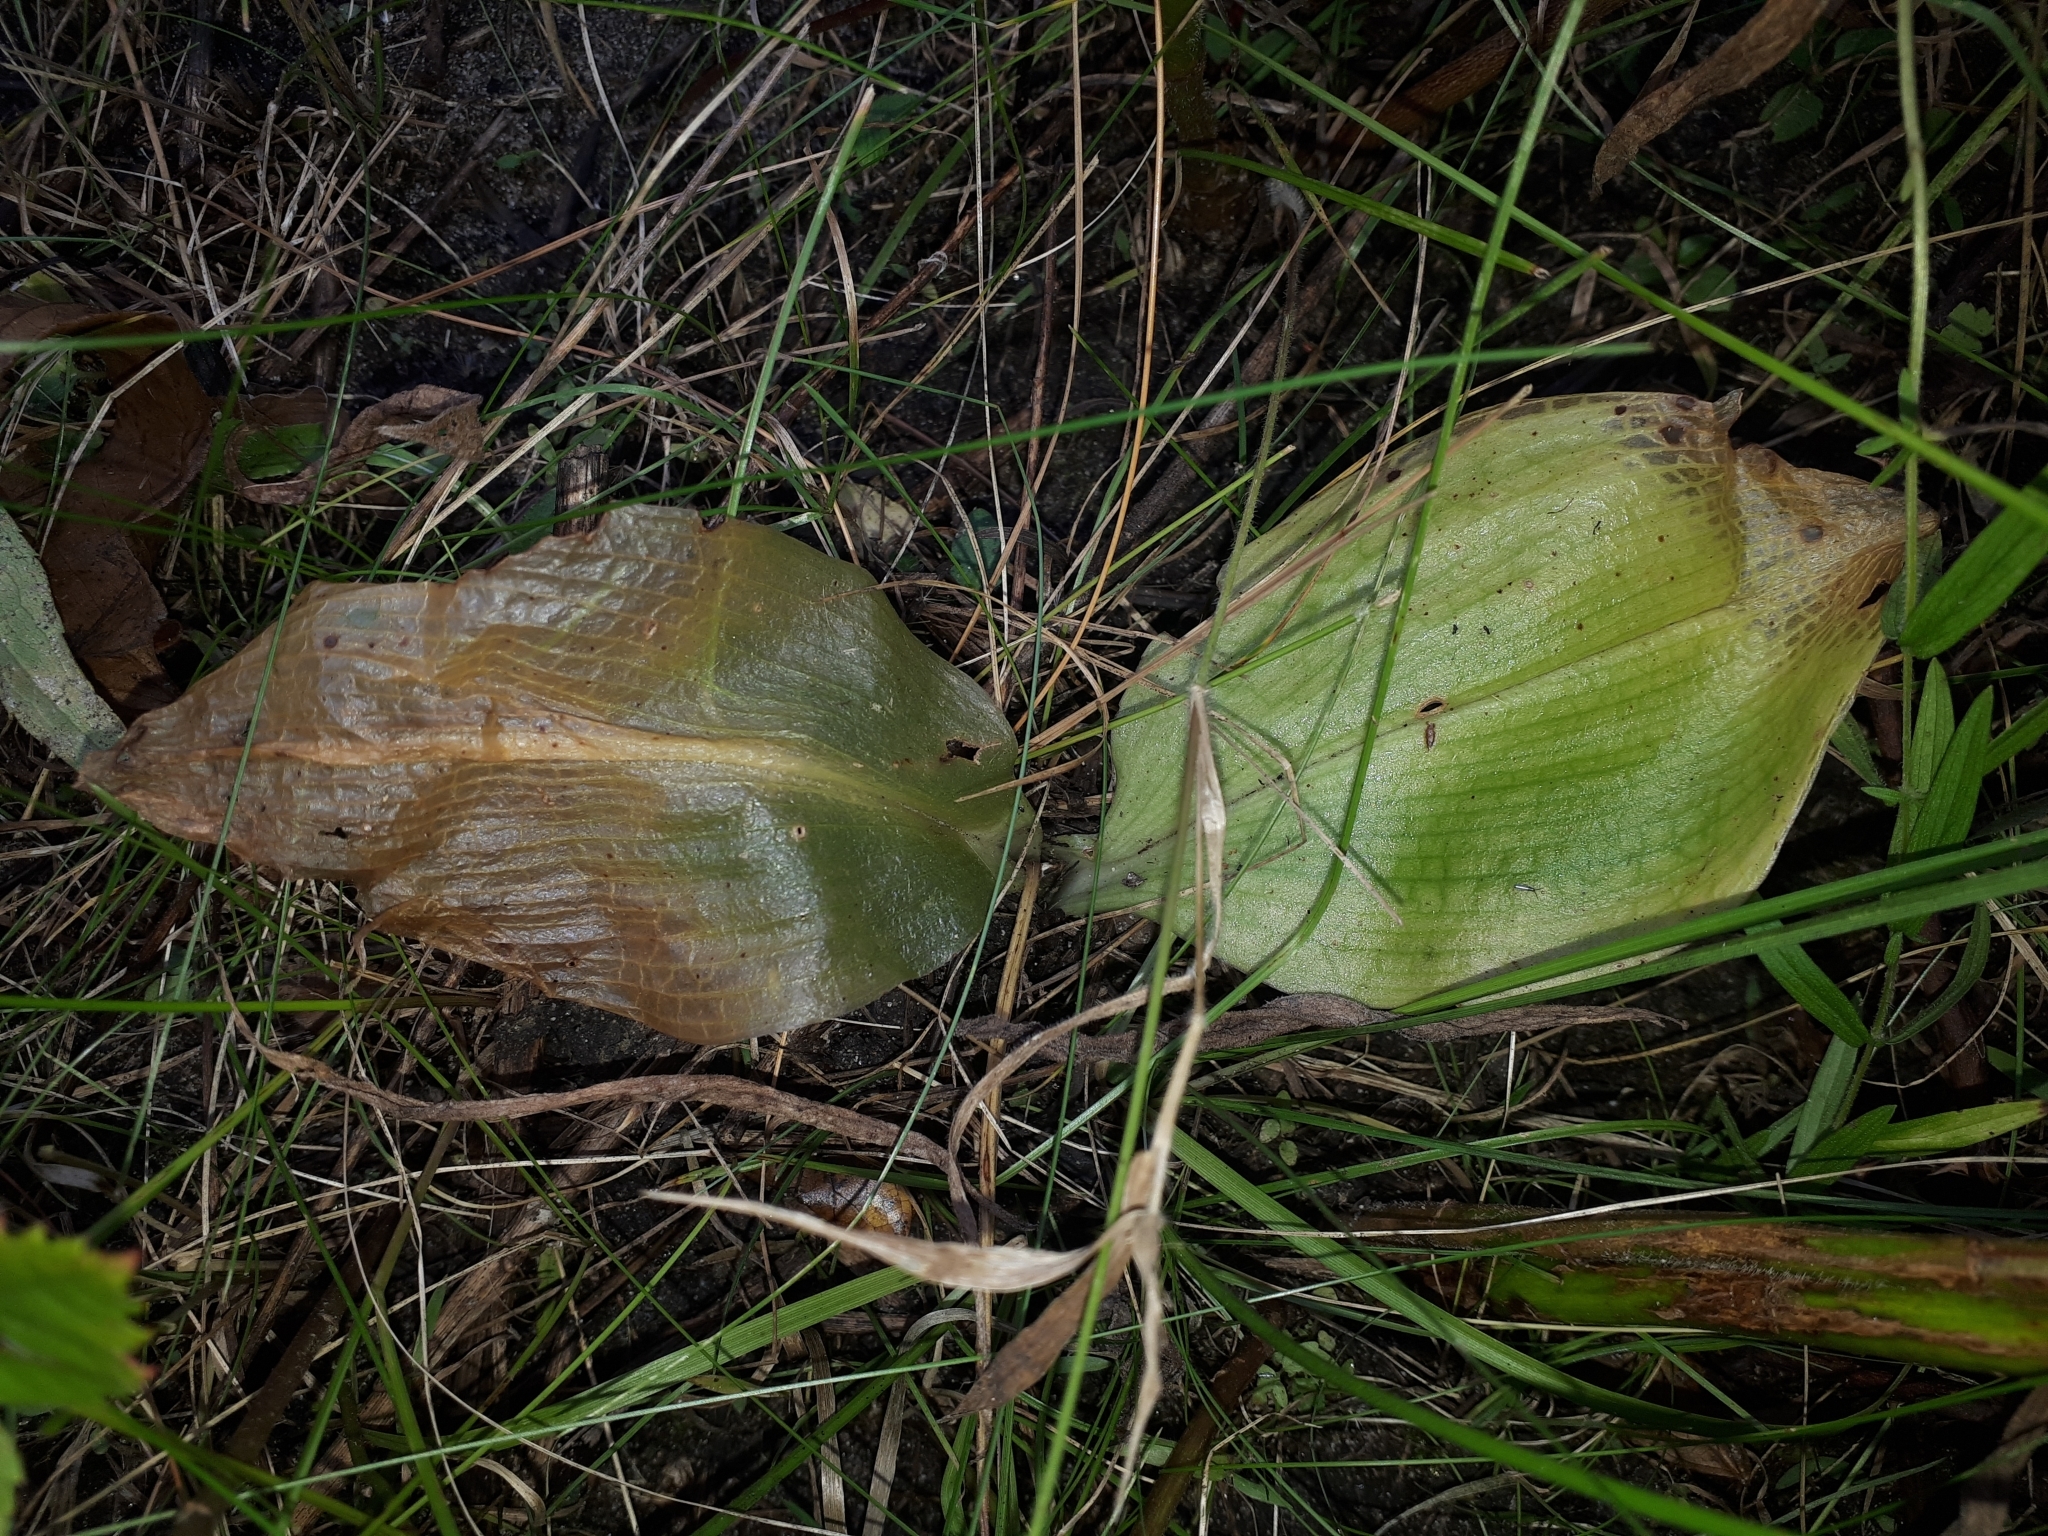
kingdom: Plantae
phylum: Tracheophyta
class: Liliopsida
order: Asparagales
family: Orchidaceae
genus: Liparis
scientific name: Liparis liliifolia
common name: Brown wide-lip orchid
